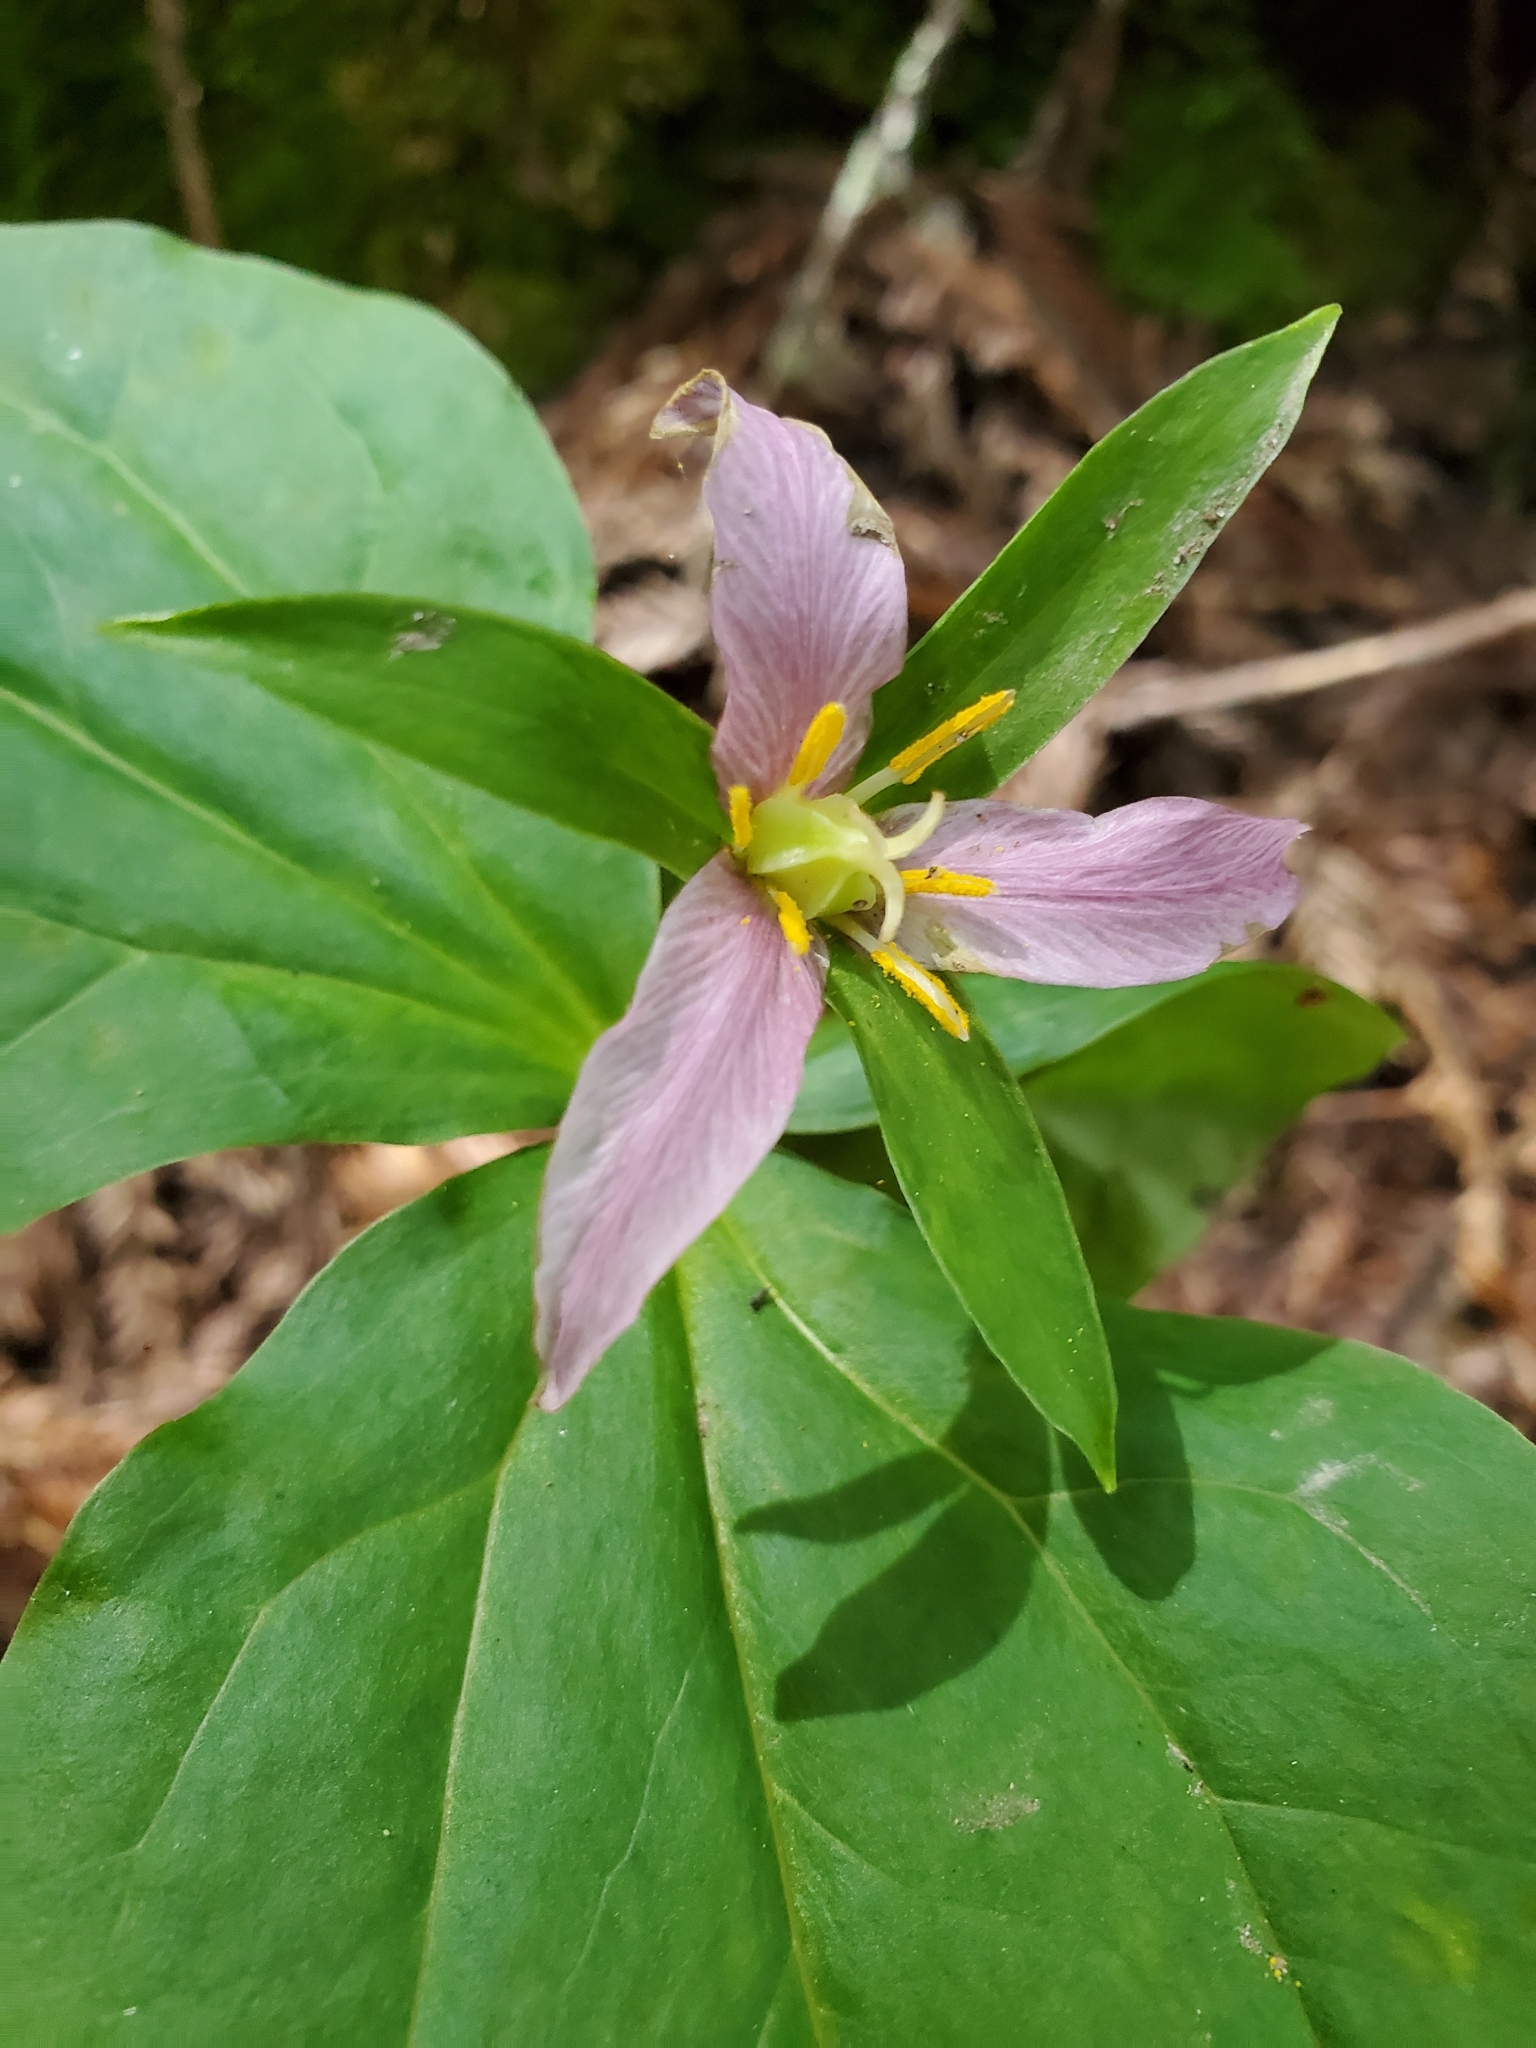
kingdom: Plantae
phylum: Tracheophyta
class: Liliopsida
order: Liliales
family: Melanthiaceae
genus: Trillium
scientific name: Trillium ovatum
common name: Pacific trillium
